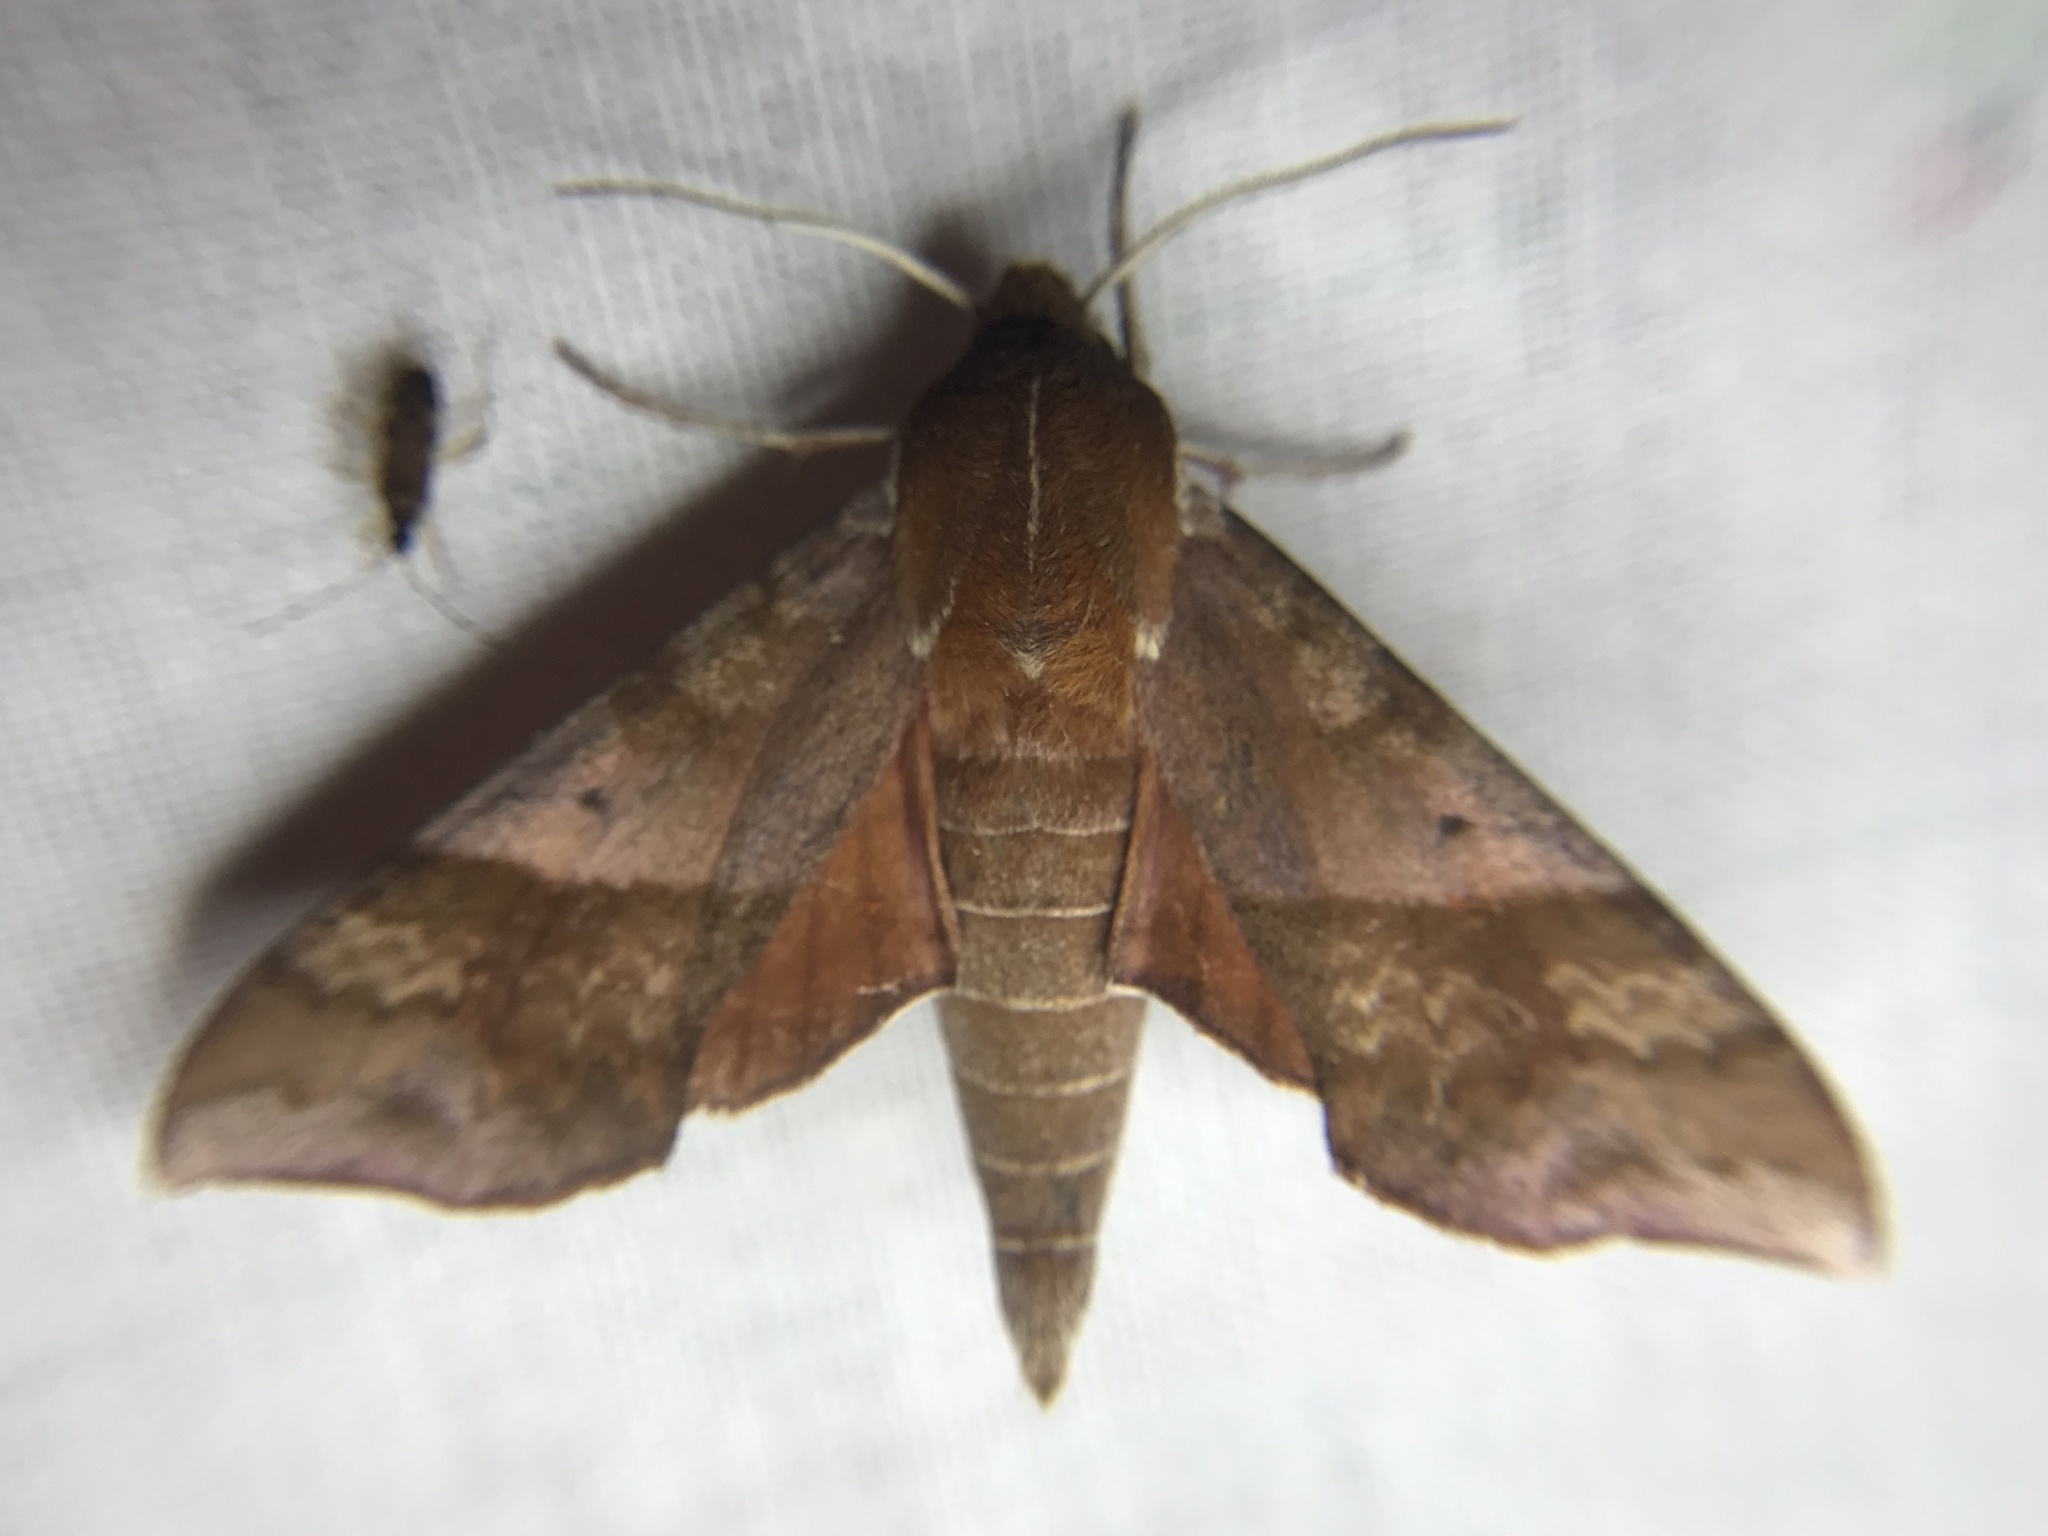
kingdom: Animalia
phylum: Arthropoda
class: Insecta
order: Lepidoptera
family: Sphingidae
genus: Darapsa
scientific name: Darapsa choerilus
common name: Azalea sphinx
